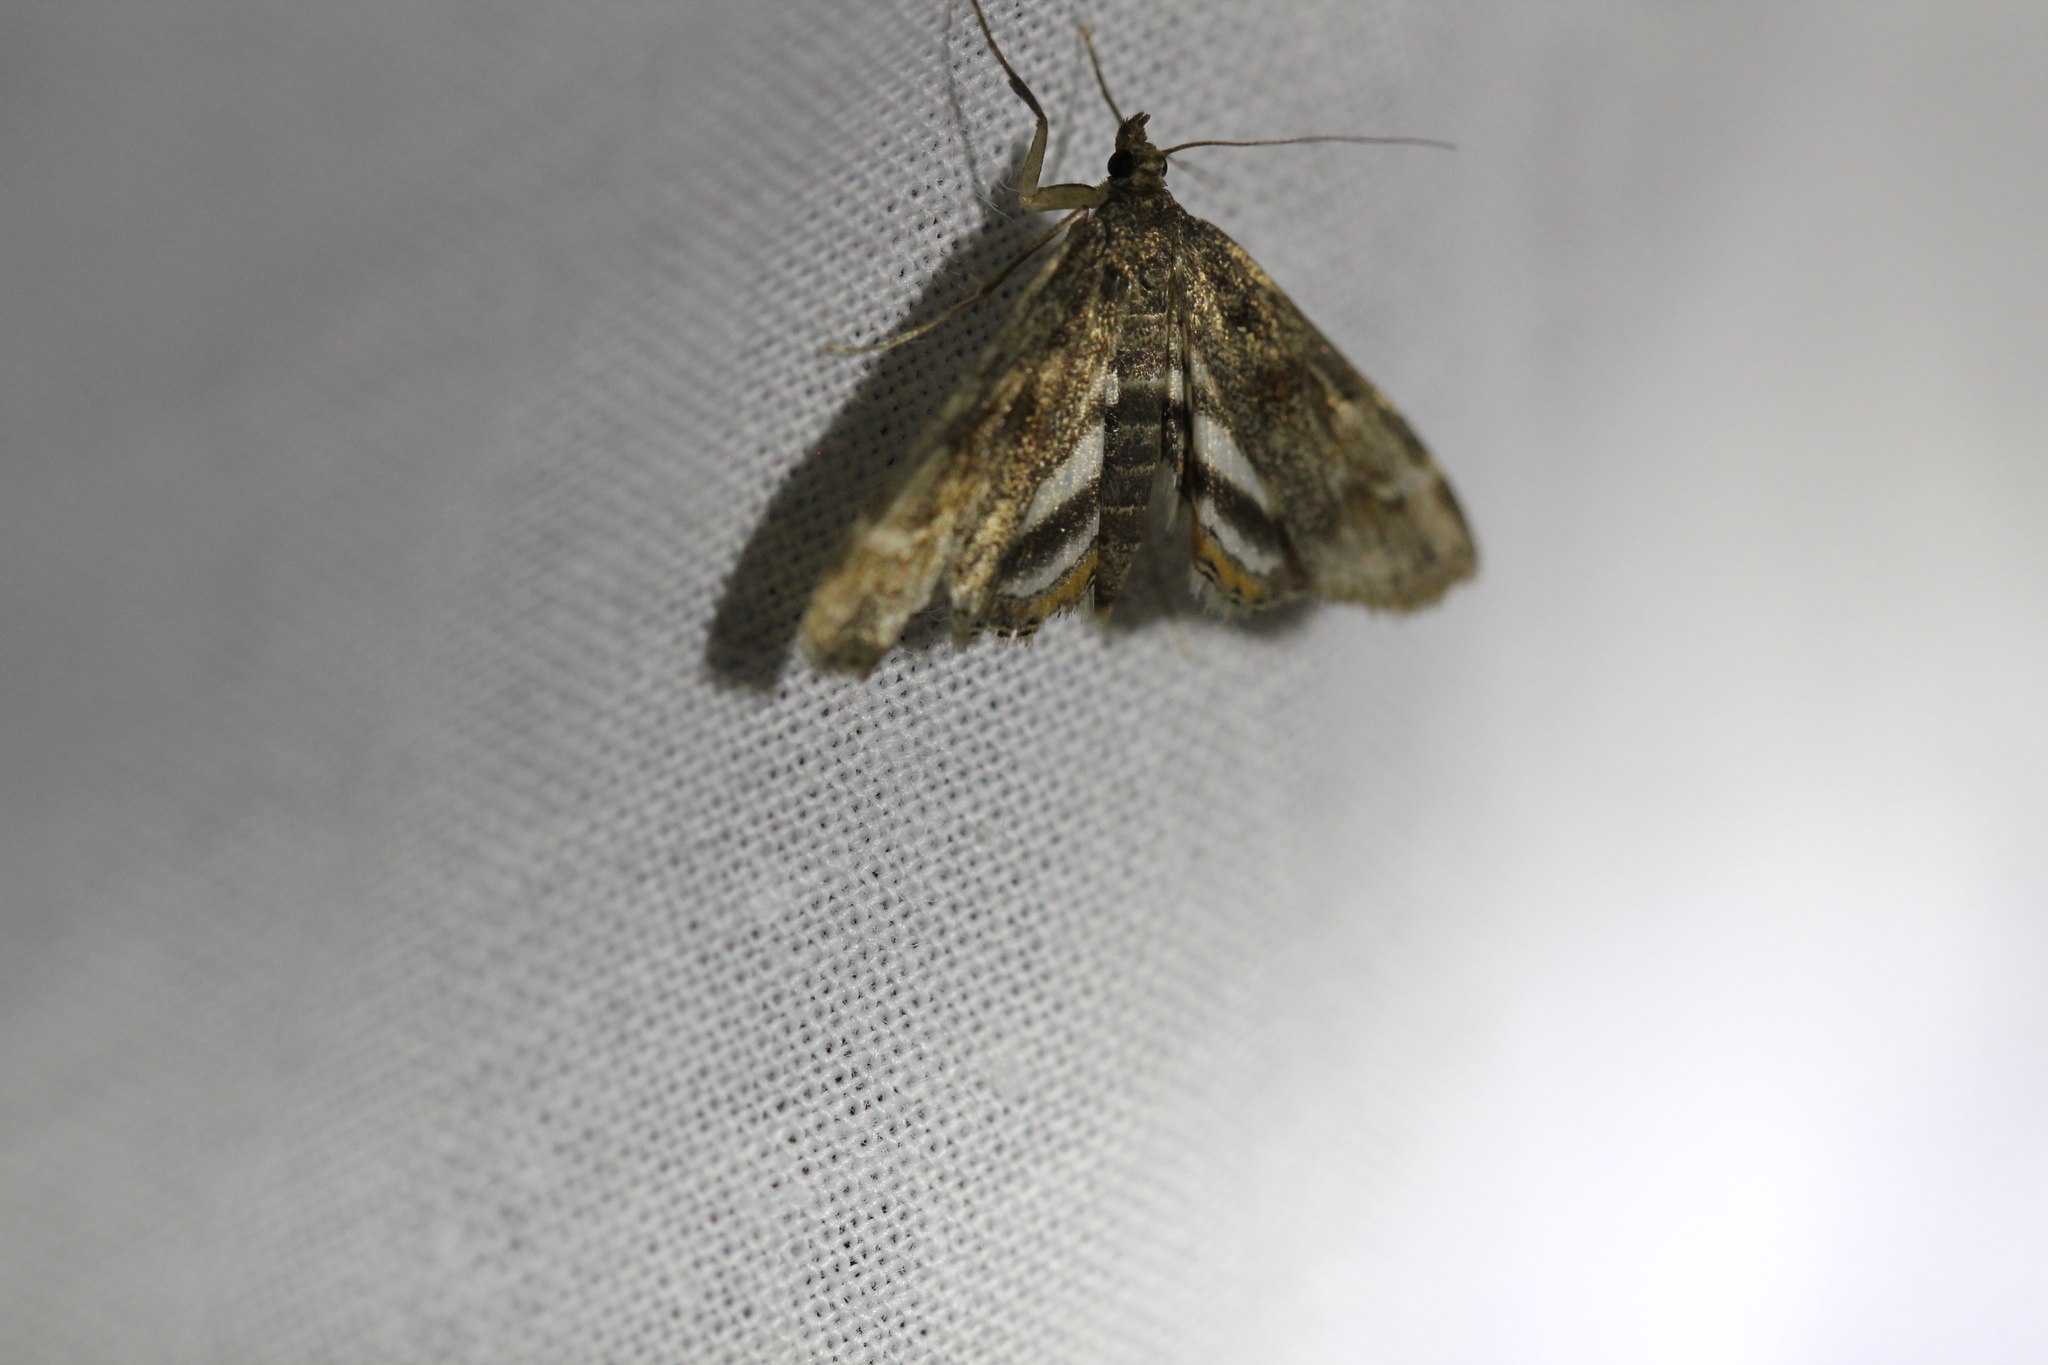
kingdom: Animalia
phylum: Arthropoda
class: Insecta
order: Lepidoptera
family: Crambidae
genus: Parapoynx
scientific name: Parapoynx obscuralis
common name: American china-mark
